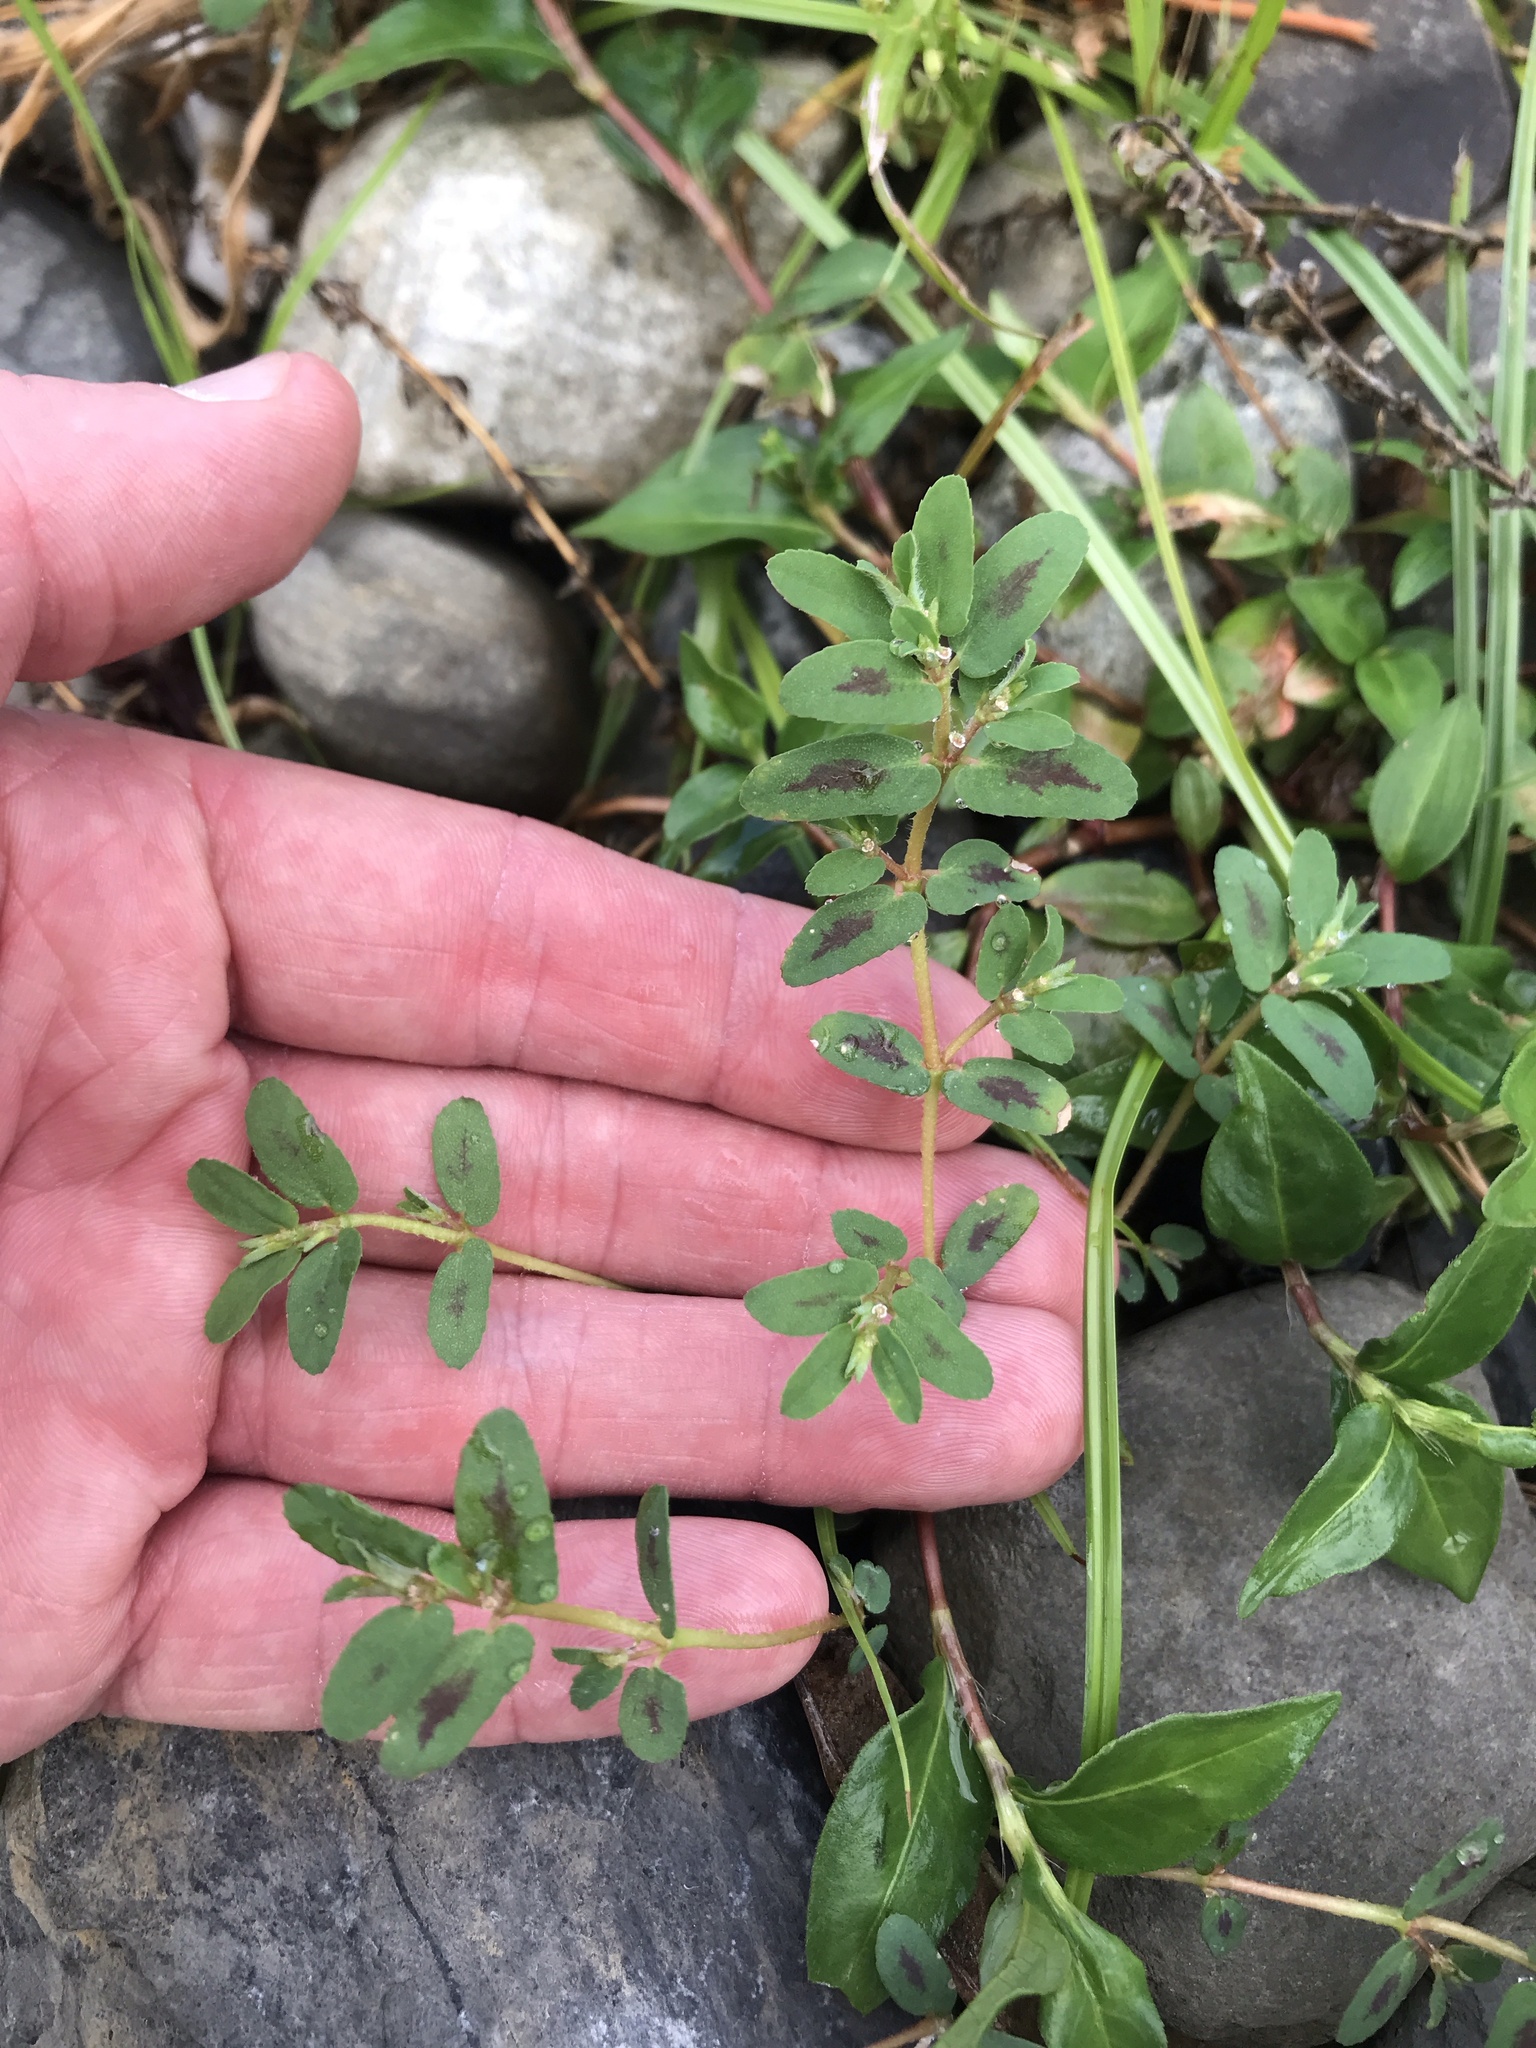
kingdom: Plantae
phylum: Tracheophyta
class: Magnoliopsida
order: Malpighiales
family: Euphorbiaceae
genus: Euphorbia
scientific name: Euphorbia maculata
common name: Spotted spurge
